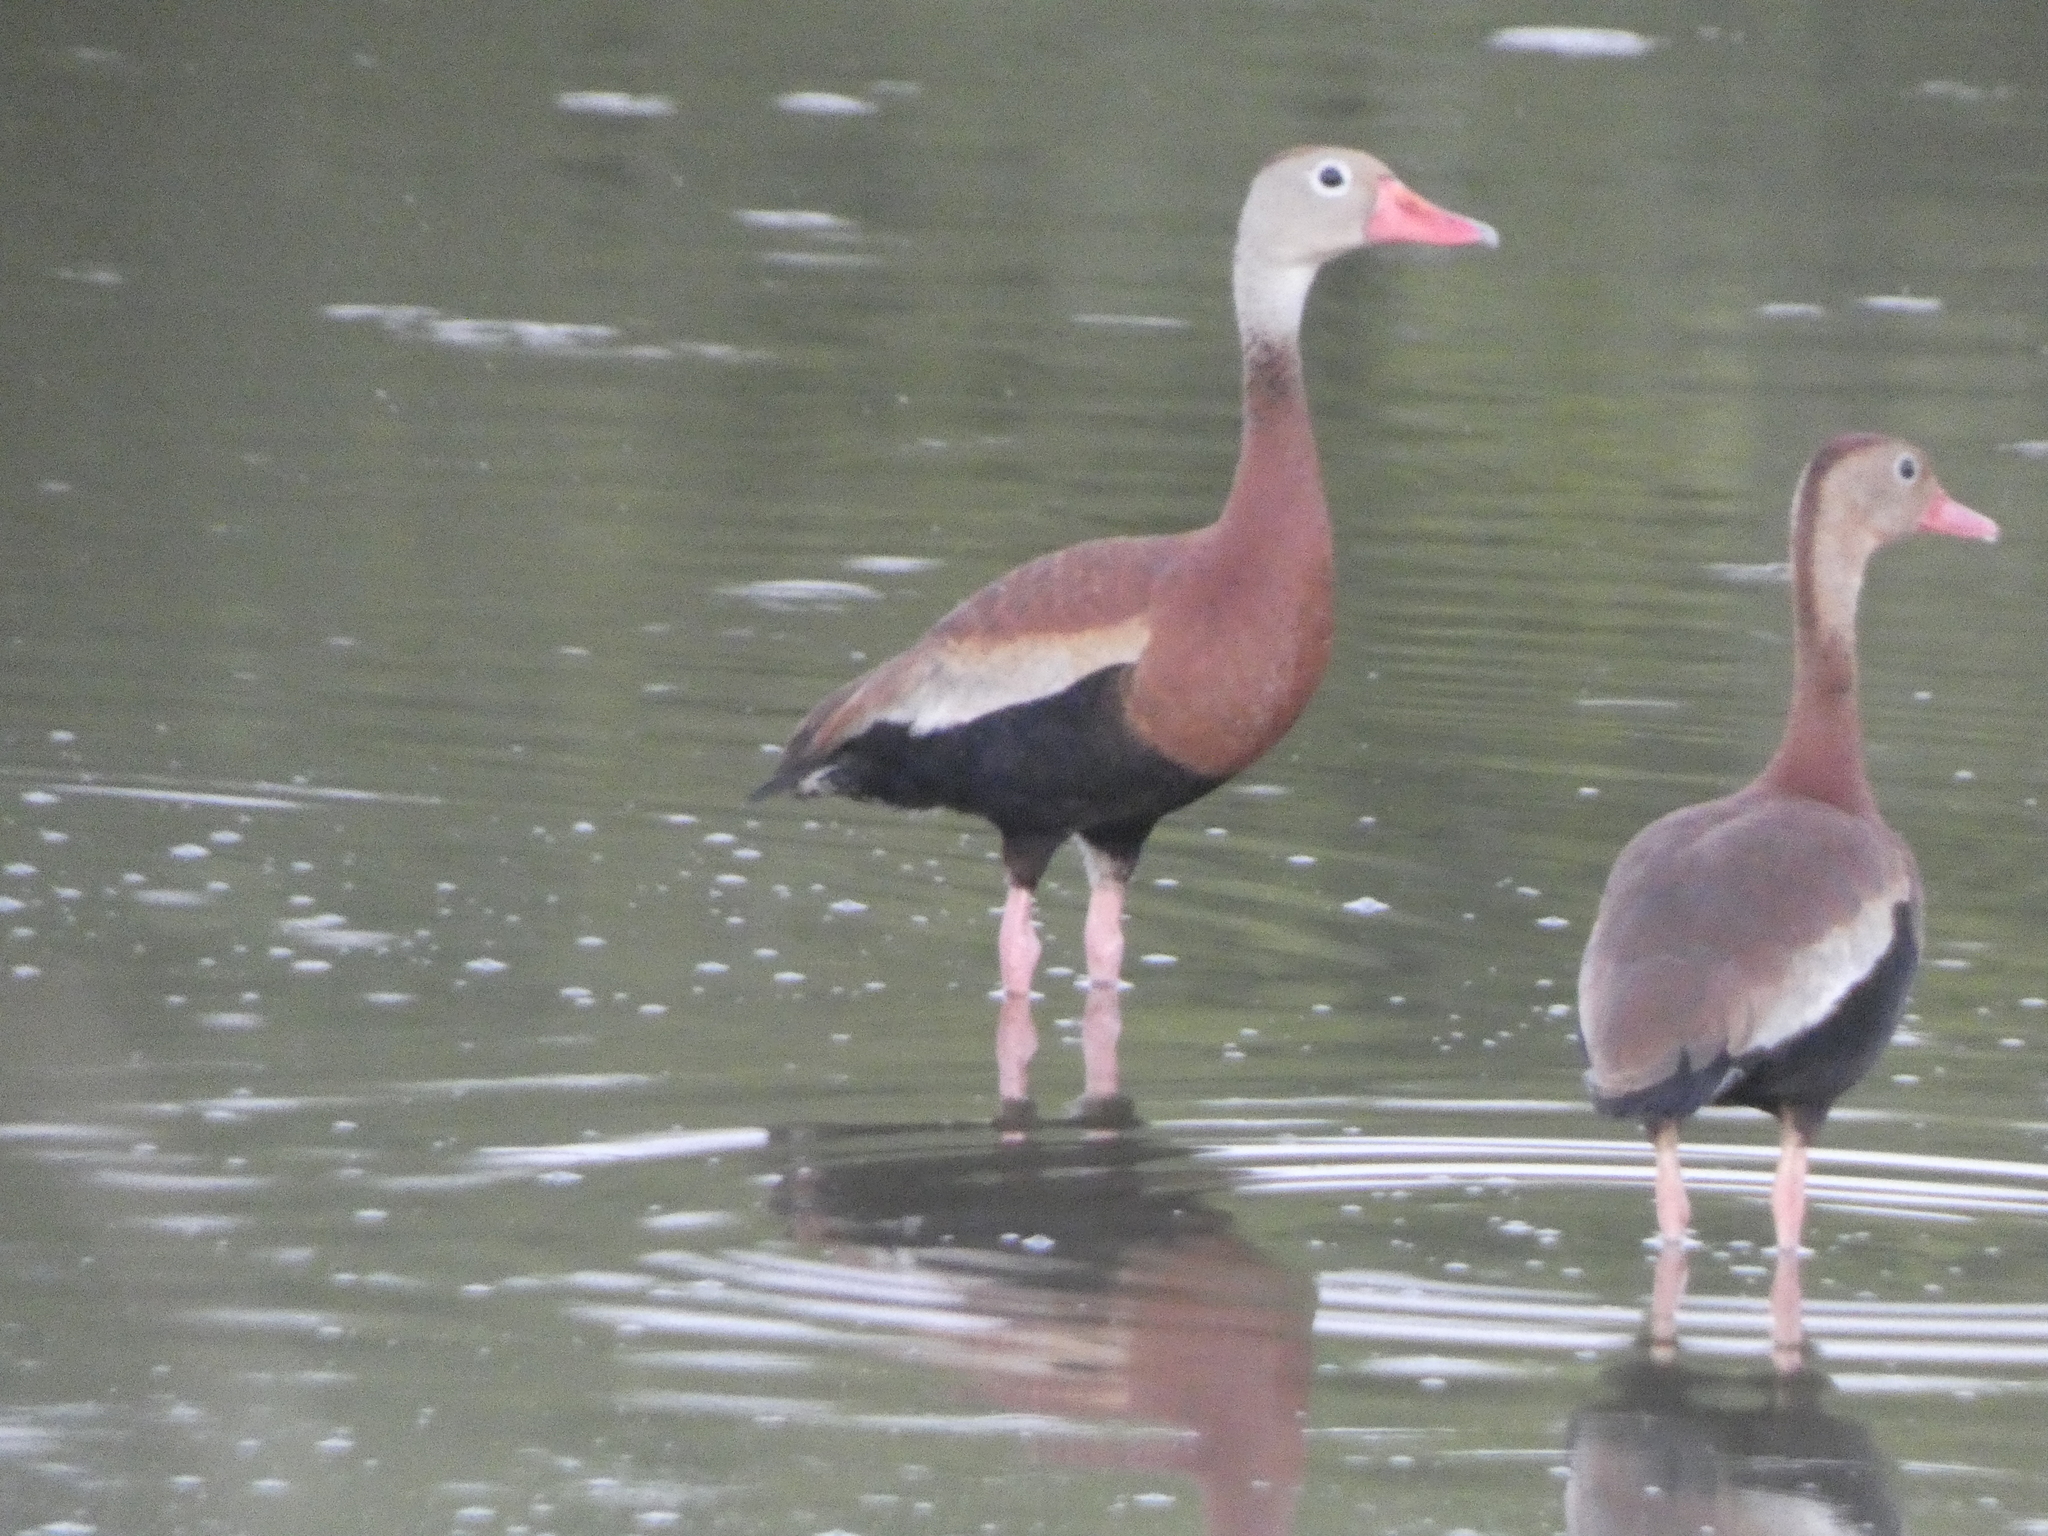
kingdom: Animalia
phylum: Chordata
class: Aves
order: Anseriformes
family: Anatidae
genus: Dendrocygna
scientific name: Dendrocygna autumnalis
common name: Black-bellied whistling duck
